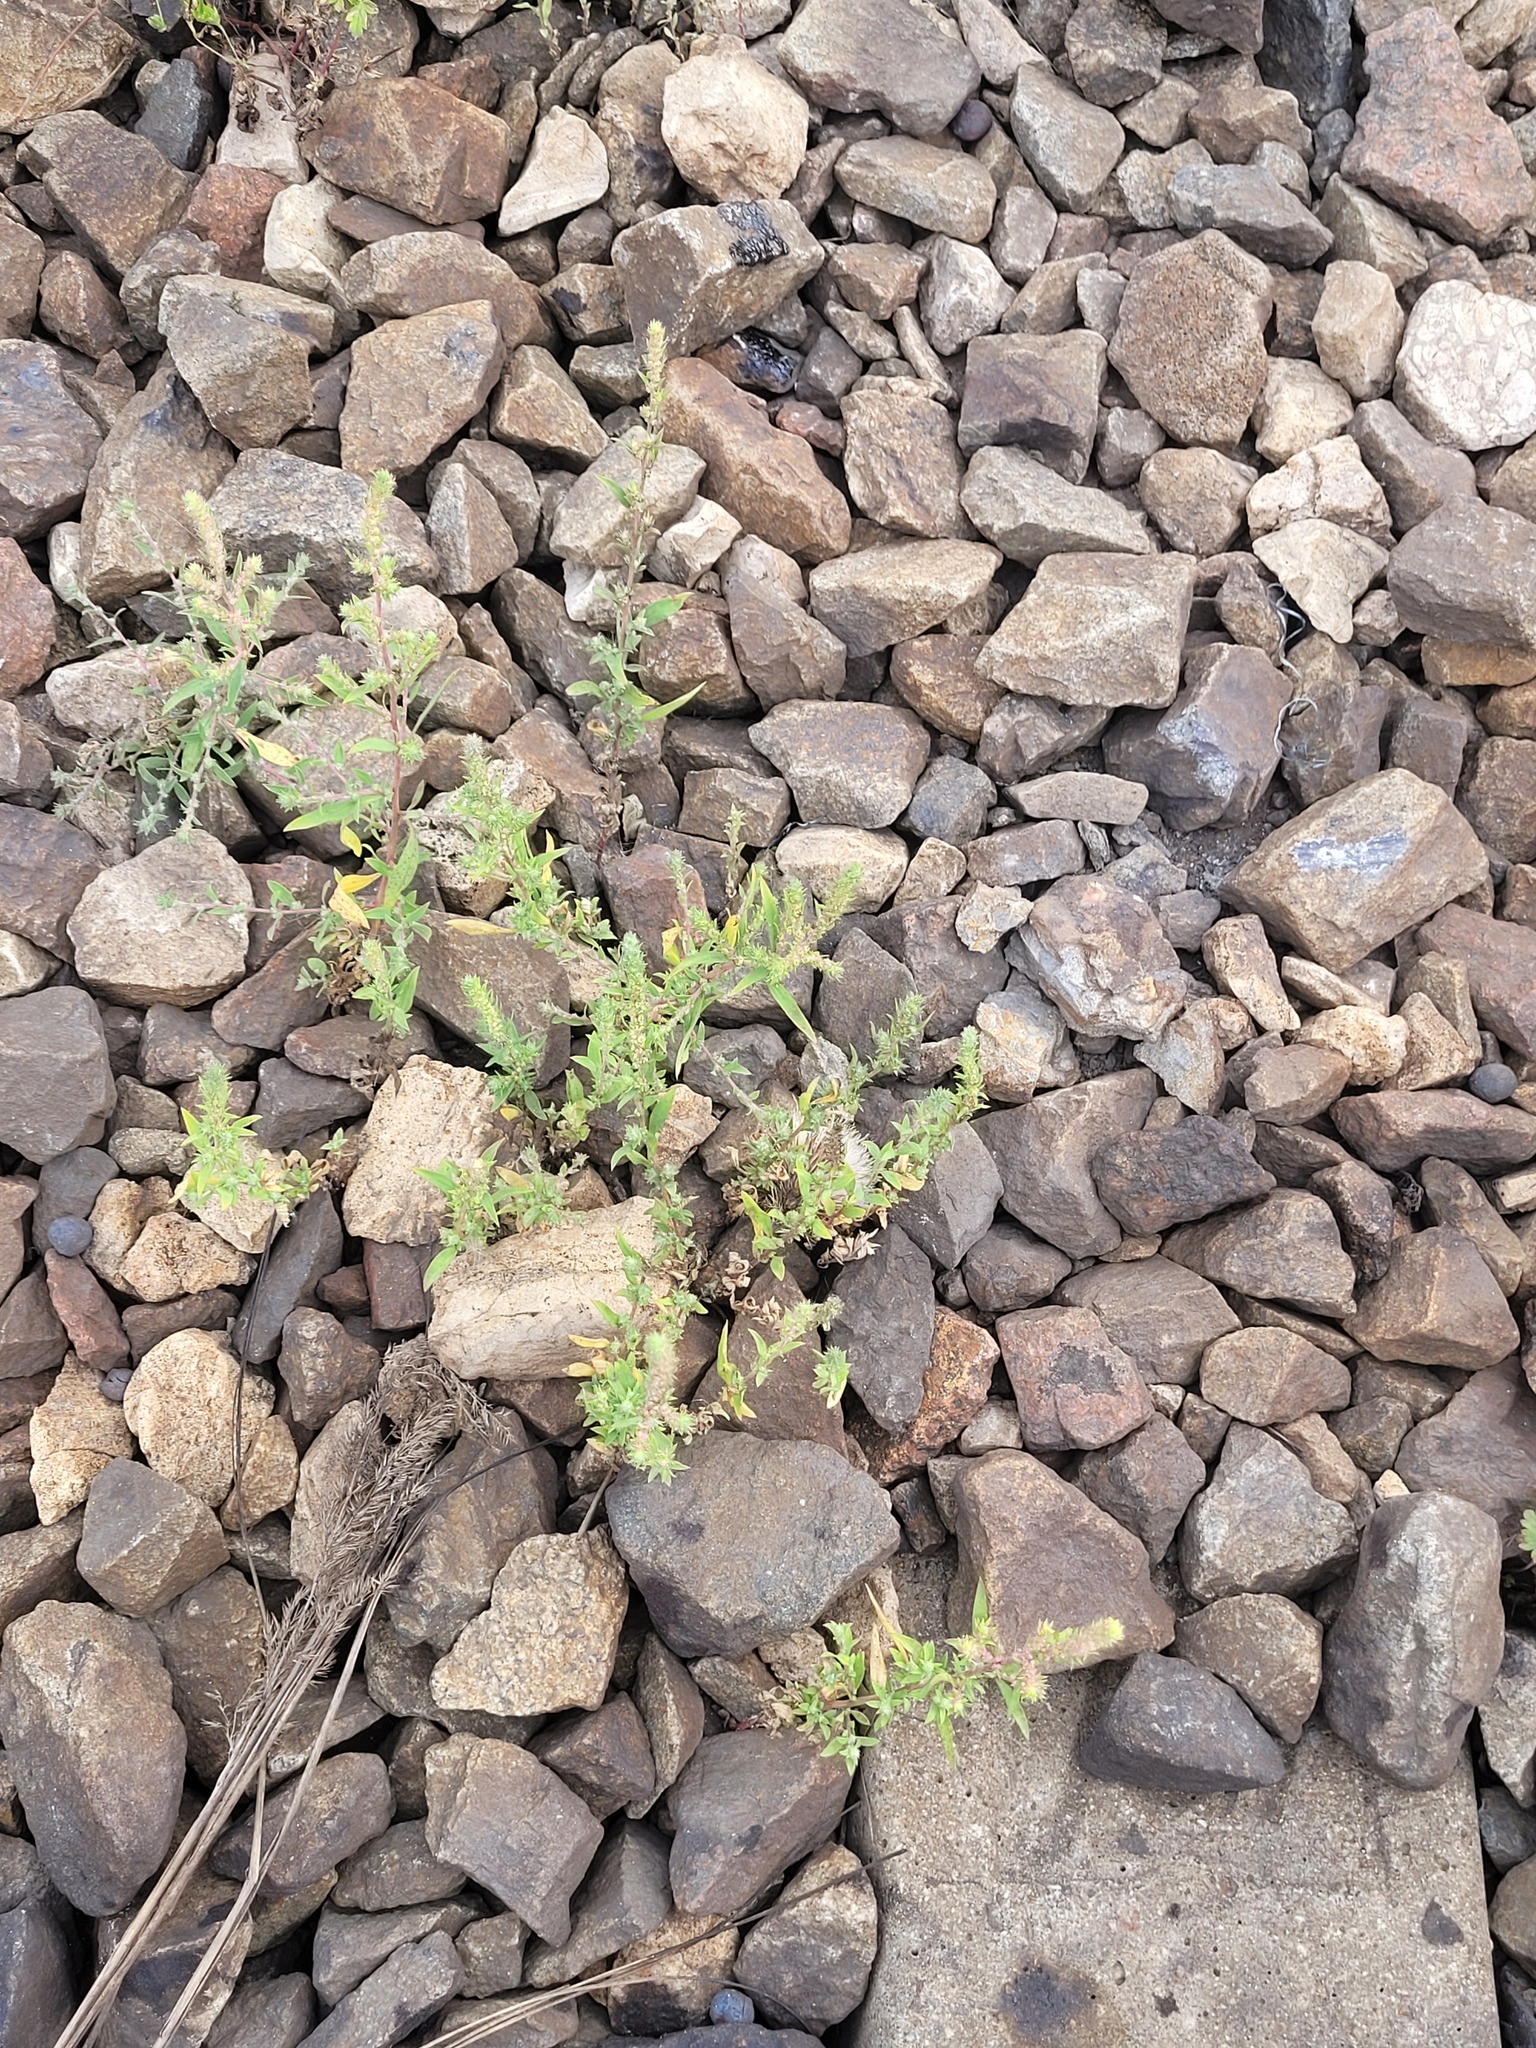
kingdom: Plantae
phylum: Tracheophyta
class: Magnoliopsida
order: Caryophyllales
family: Amaranthaceae
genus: Bassia
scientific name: Bassia scoparia
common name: Belvedere
